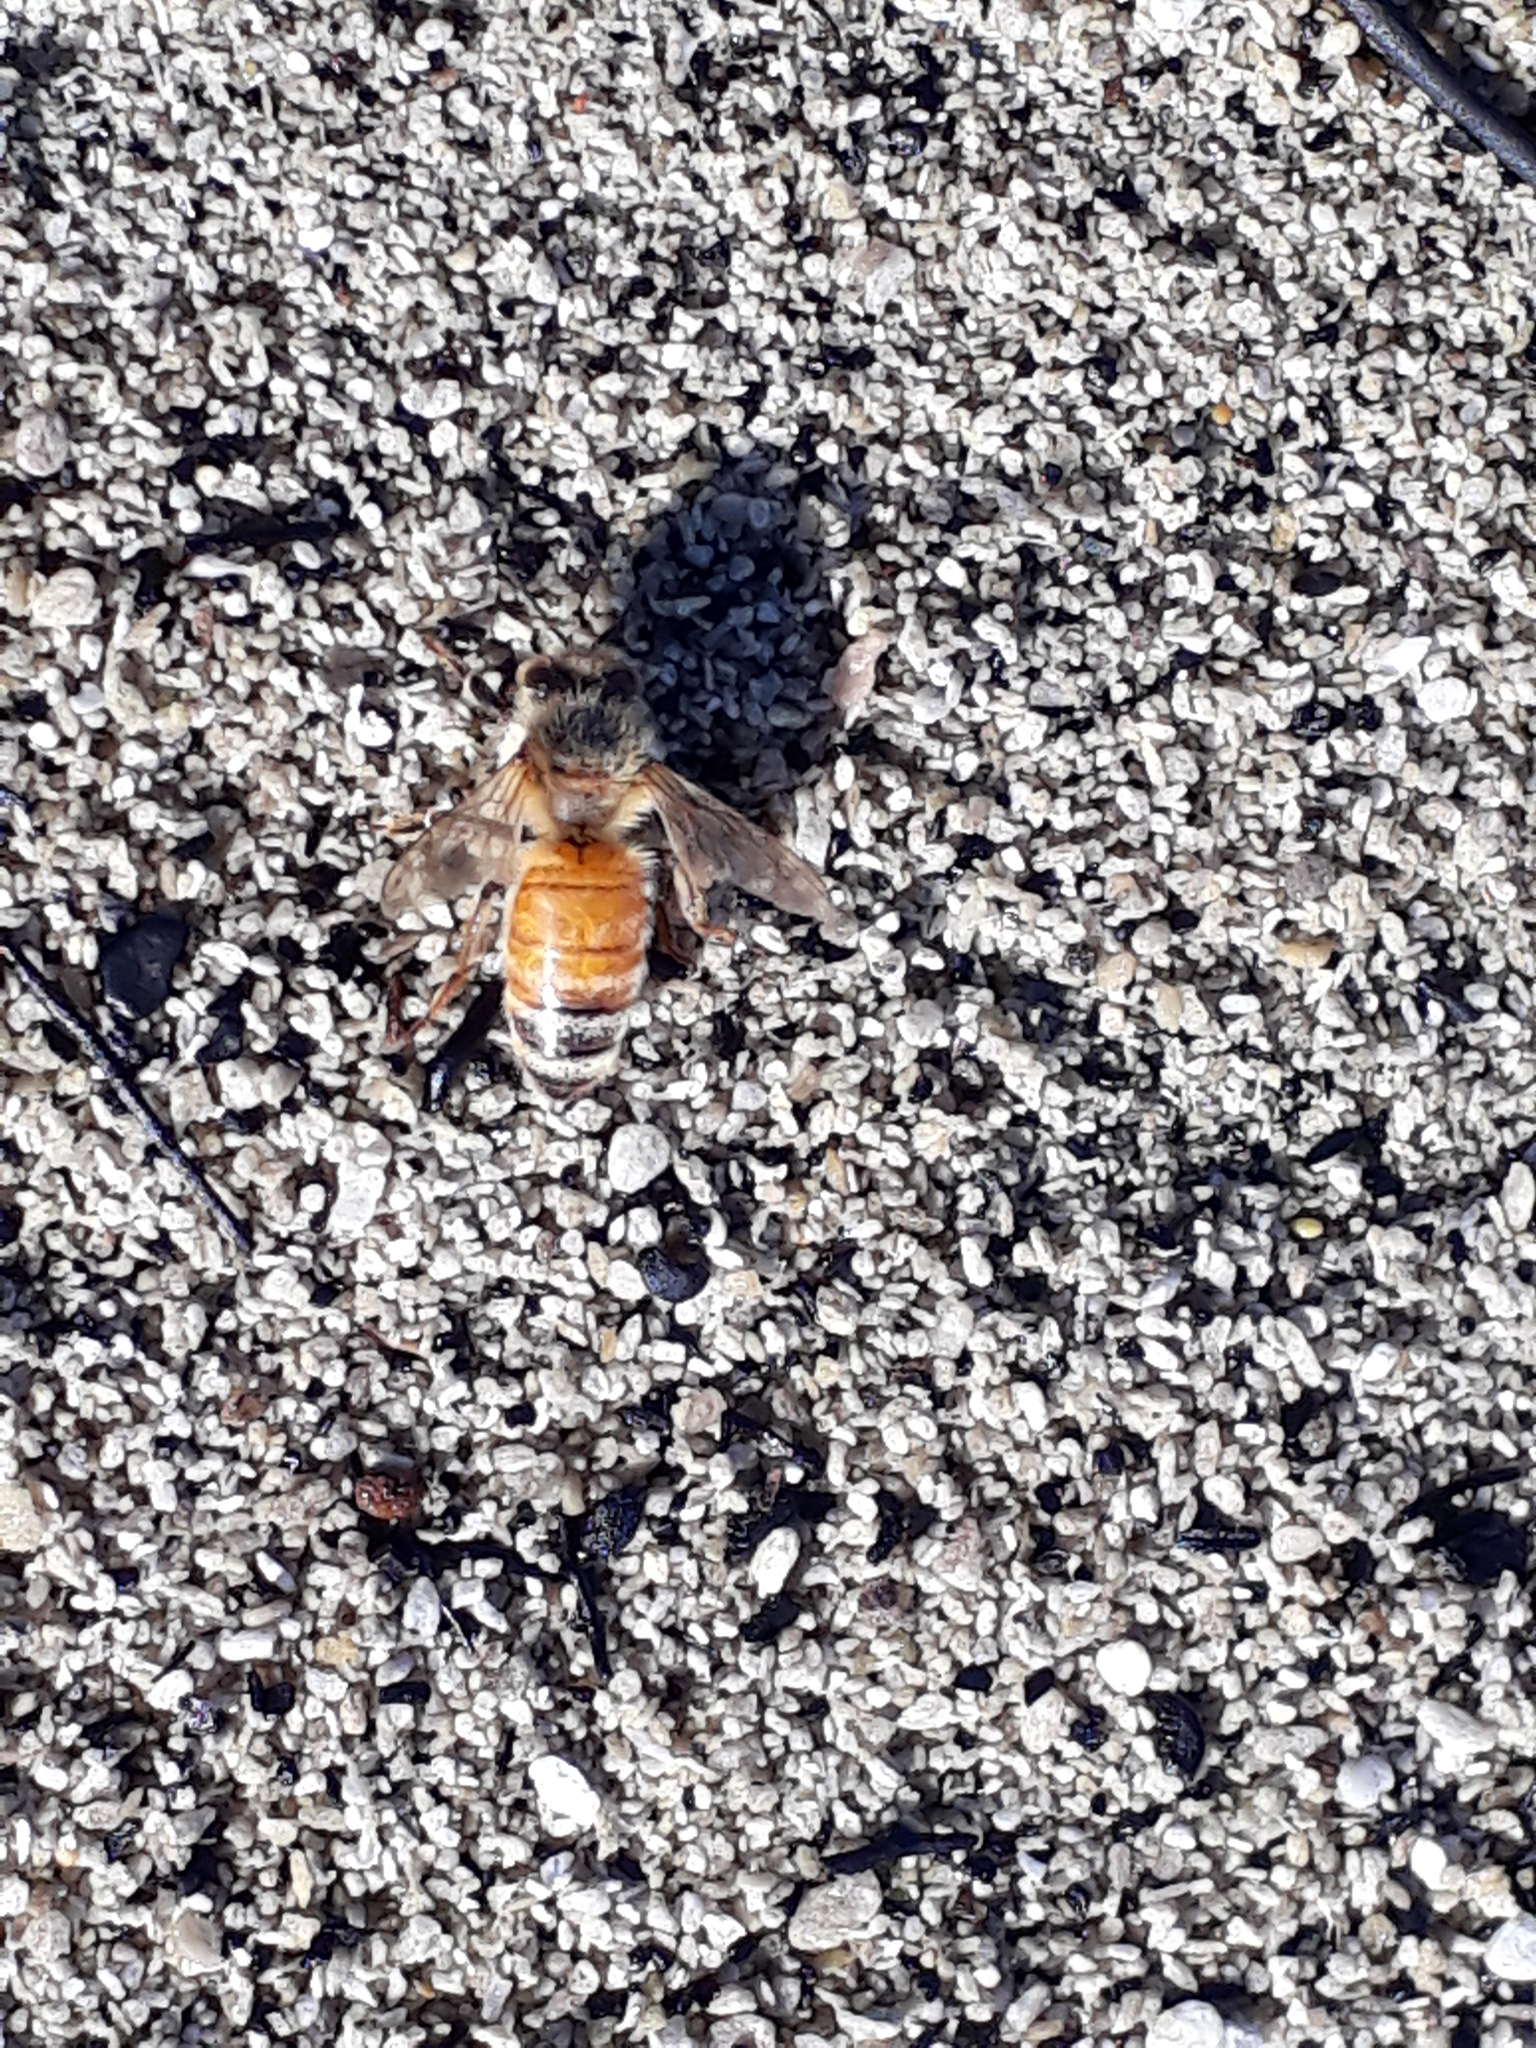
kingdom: Animalia
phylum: Arthropoda
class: Insecta
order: Hymenoptera
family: Apidae
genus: Apis
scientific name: Apis mellifera
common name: Honey bee
